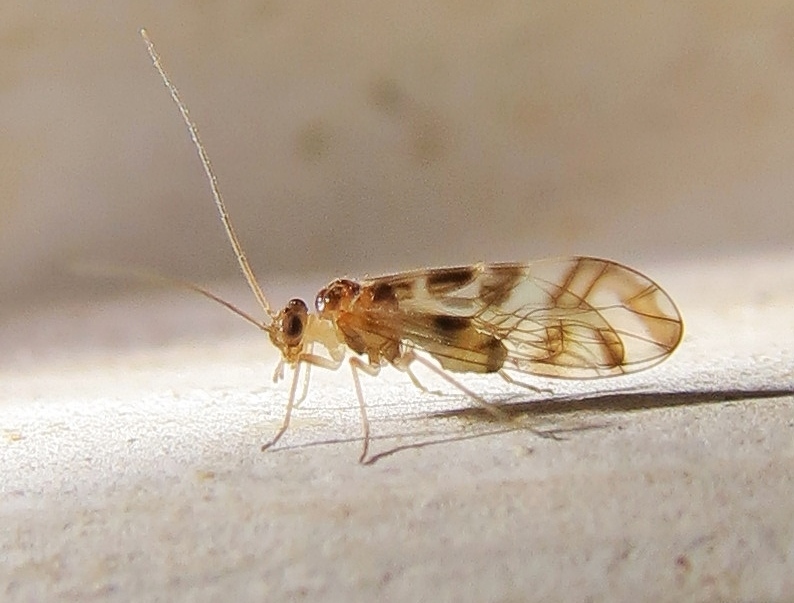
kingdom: Animalia
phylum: Arthropoda
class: Insecta
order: Psocodea
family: Stenopsocidae
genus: Graphopsocus
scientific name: Graphopsocus cruciatus
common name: Lizard bark louse
